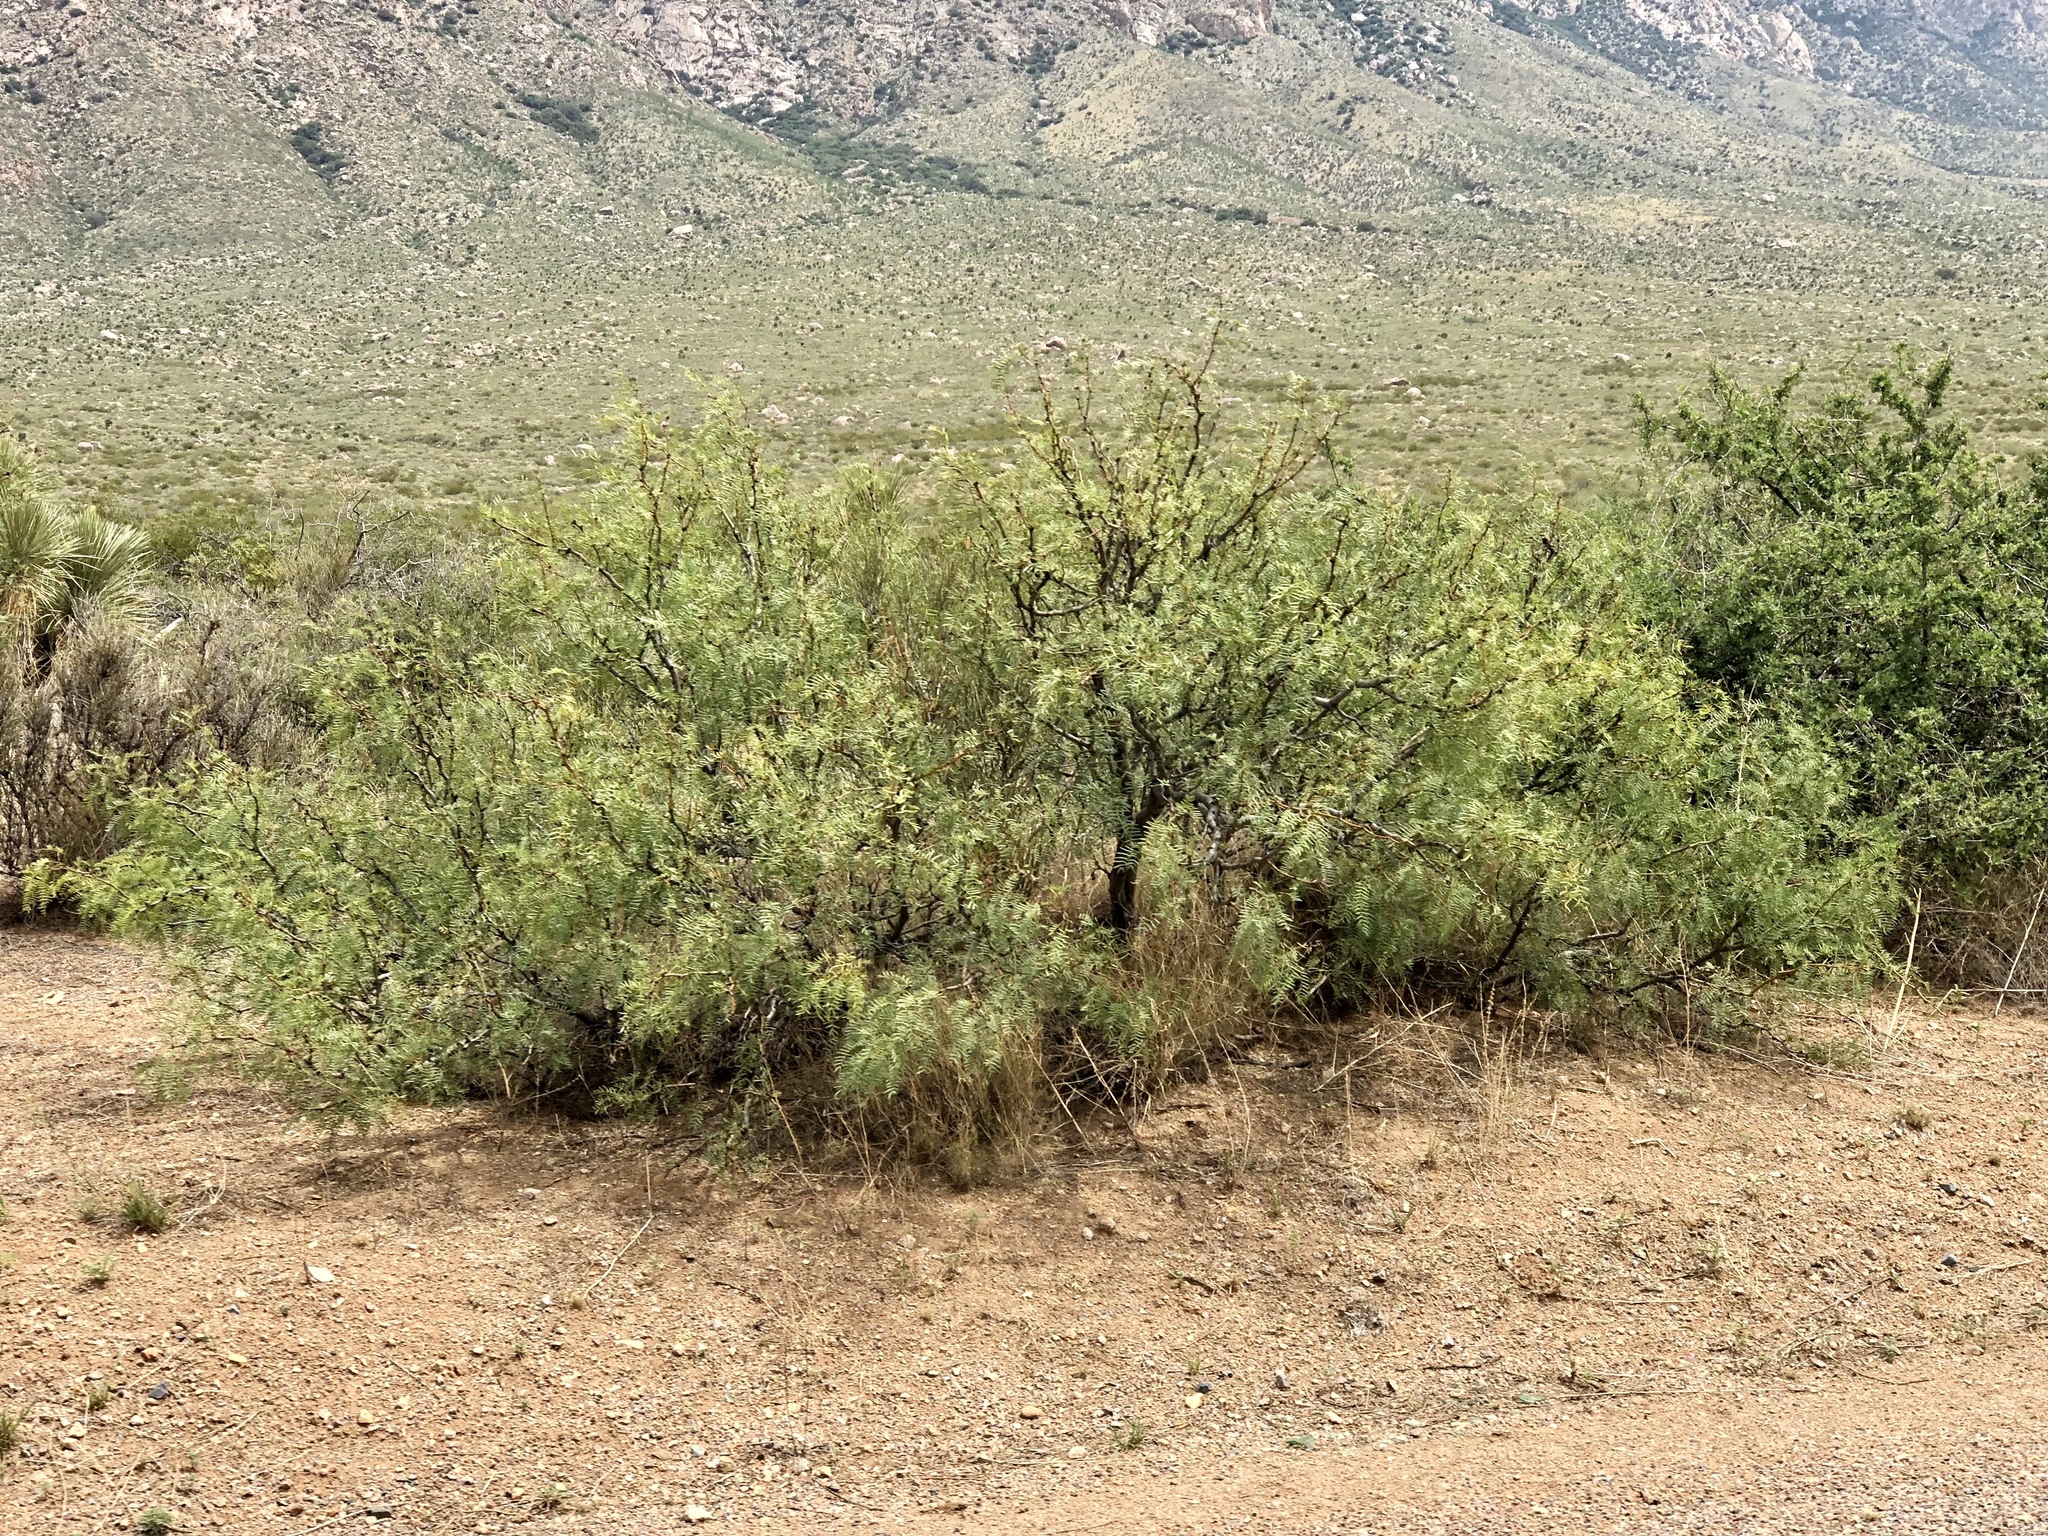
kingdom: Plantae
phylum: Tracheophyta
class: Magnoliopsida
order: Fabales
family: Fabaceae
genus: Prosopis
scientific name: Prosopis glandulosa
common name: Honey mesquite
